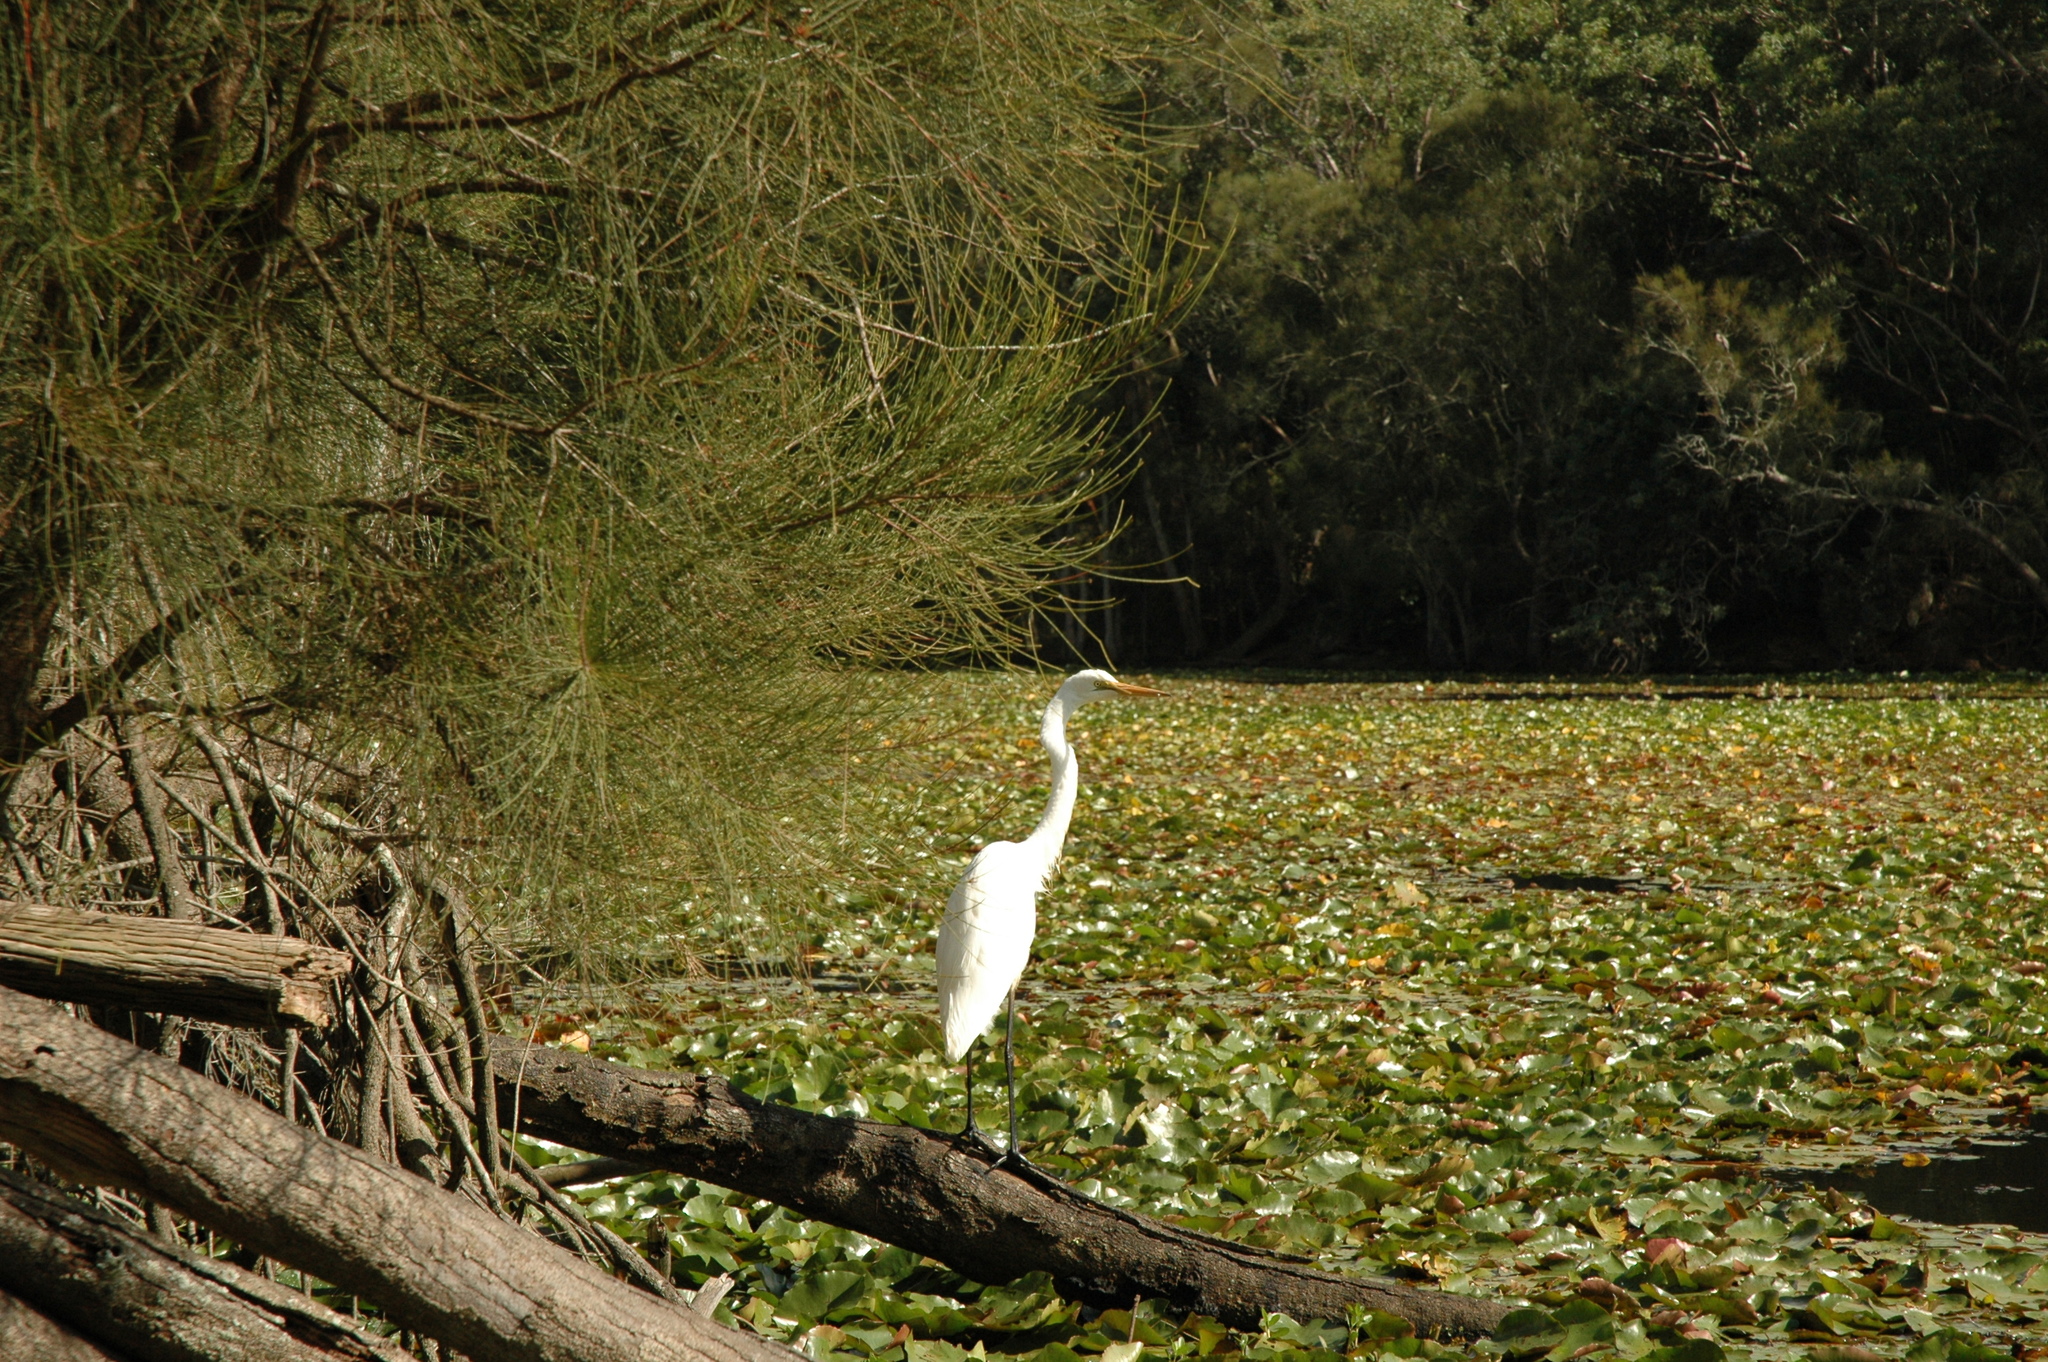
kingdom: Animalia
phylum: Chordata
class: Aves
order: Pelecaniformes
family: Ardeidae
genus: Ardea
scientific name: Ardea modesta
